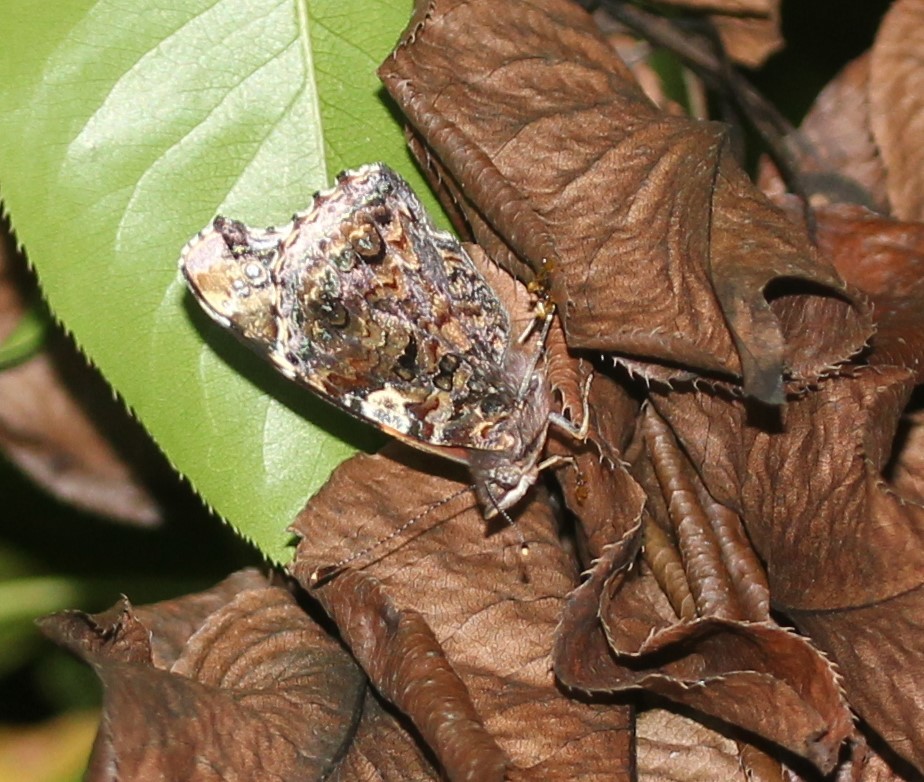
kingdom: Animalia
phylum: Arthropoda
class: Insecta
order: Lepidoptera
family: Nymphalidae
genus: Vanessa
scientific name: Vanessa atalanta
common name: Red admiral
